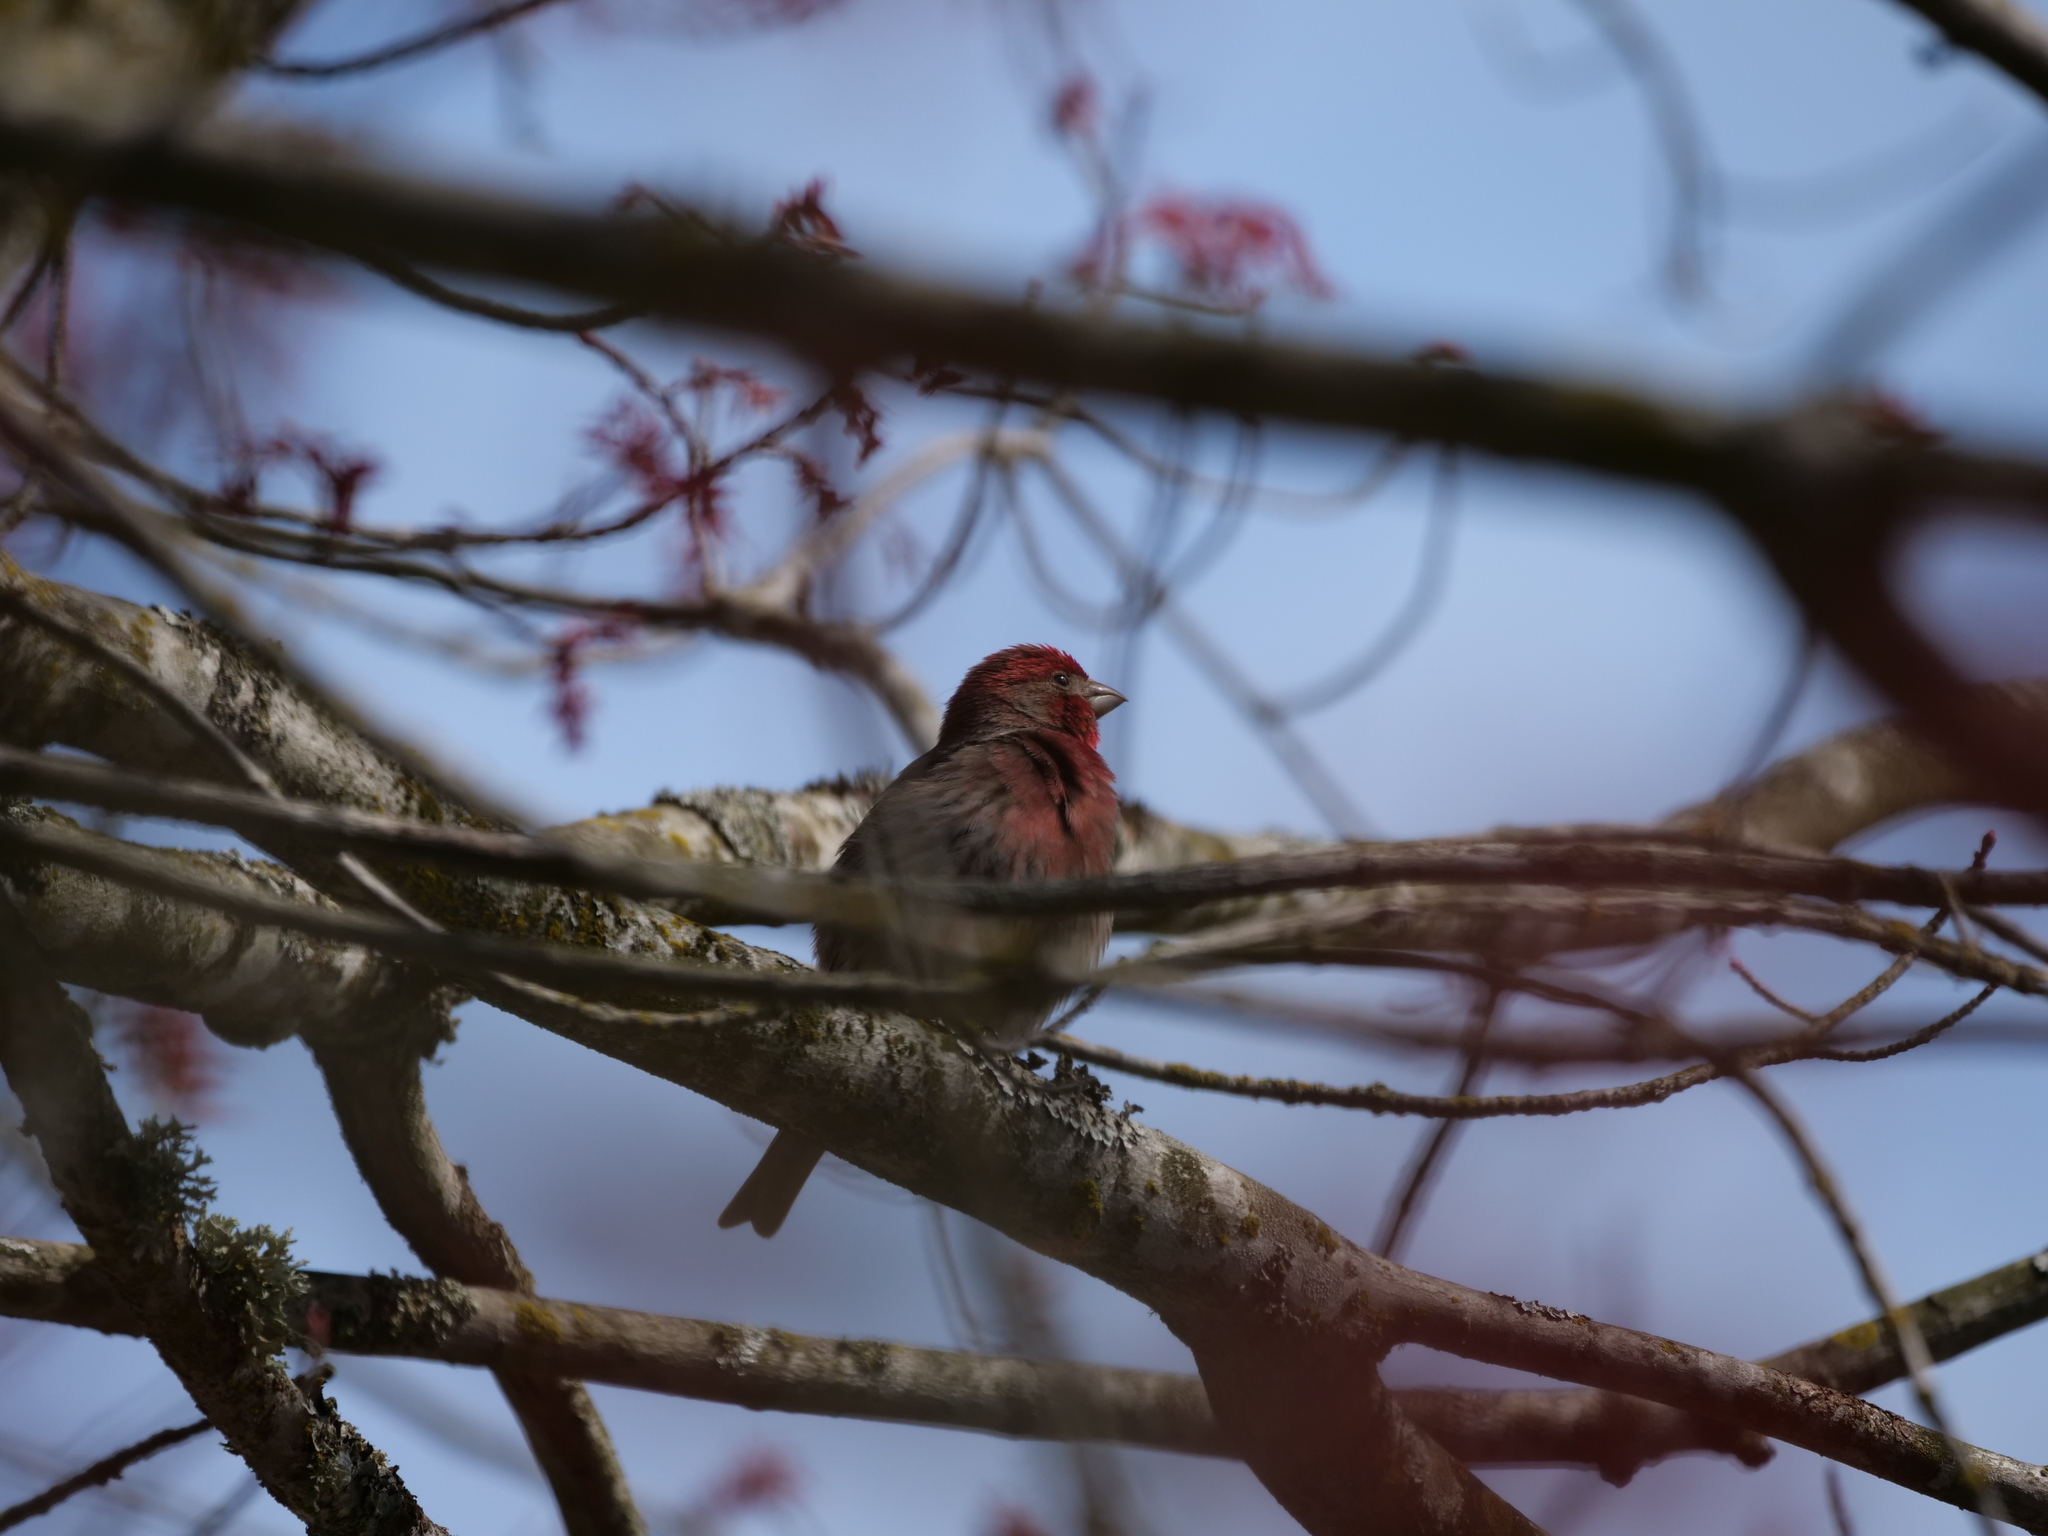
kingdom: Animalia
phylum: Chordata
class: Aves
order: Passeriformes
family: Fringillidae
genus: Haemorhous
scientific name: Haemorhous mexicanus
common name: House finch
